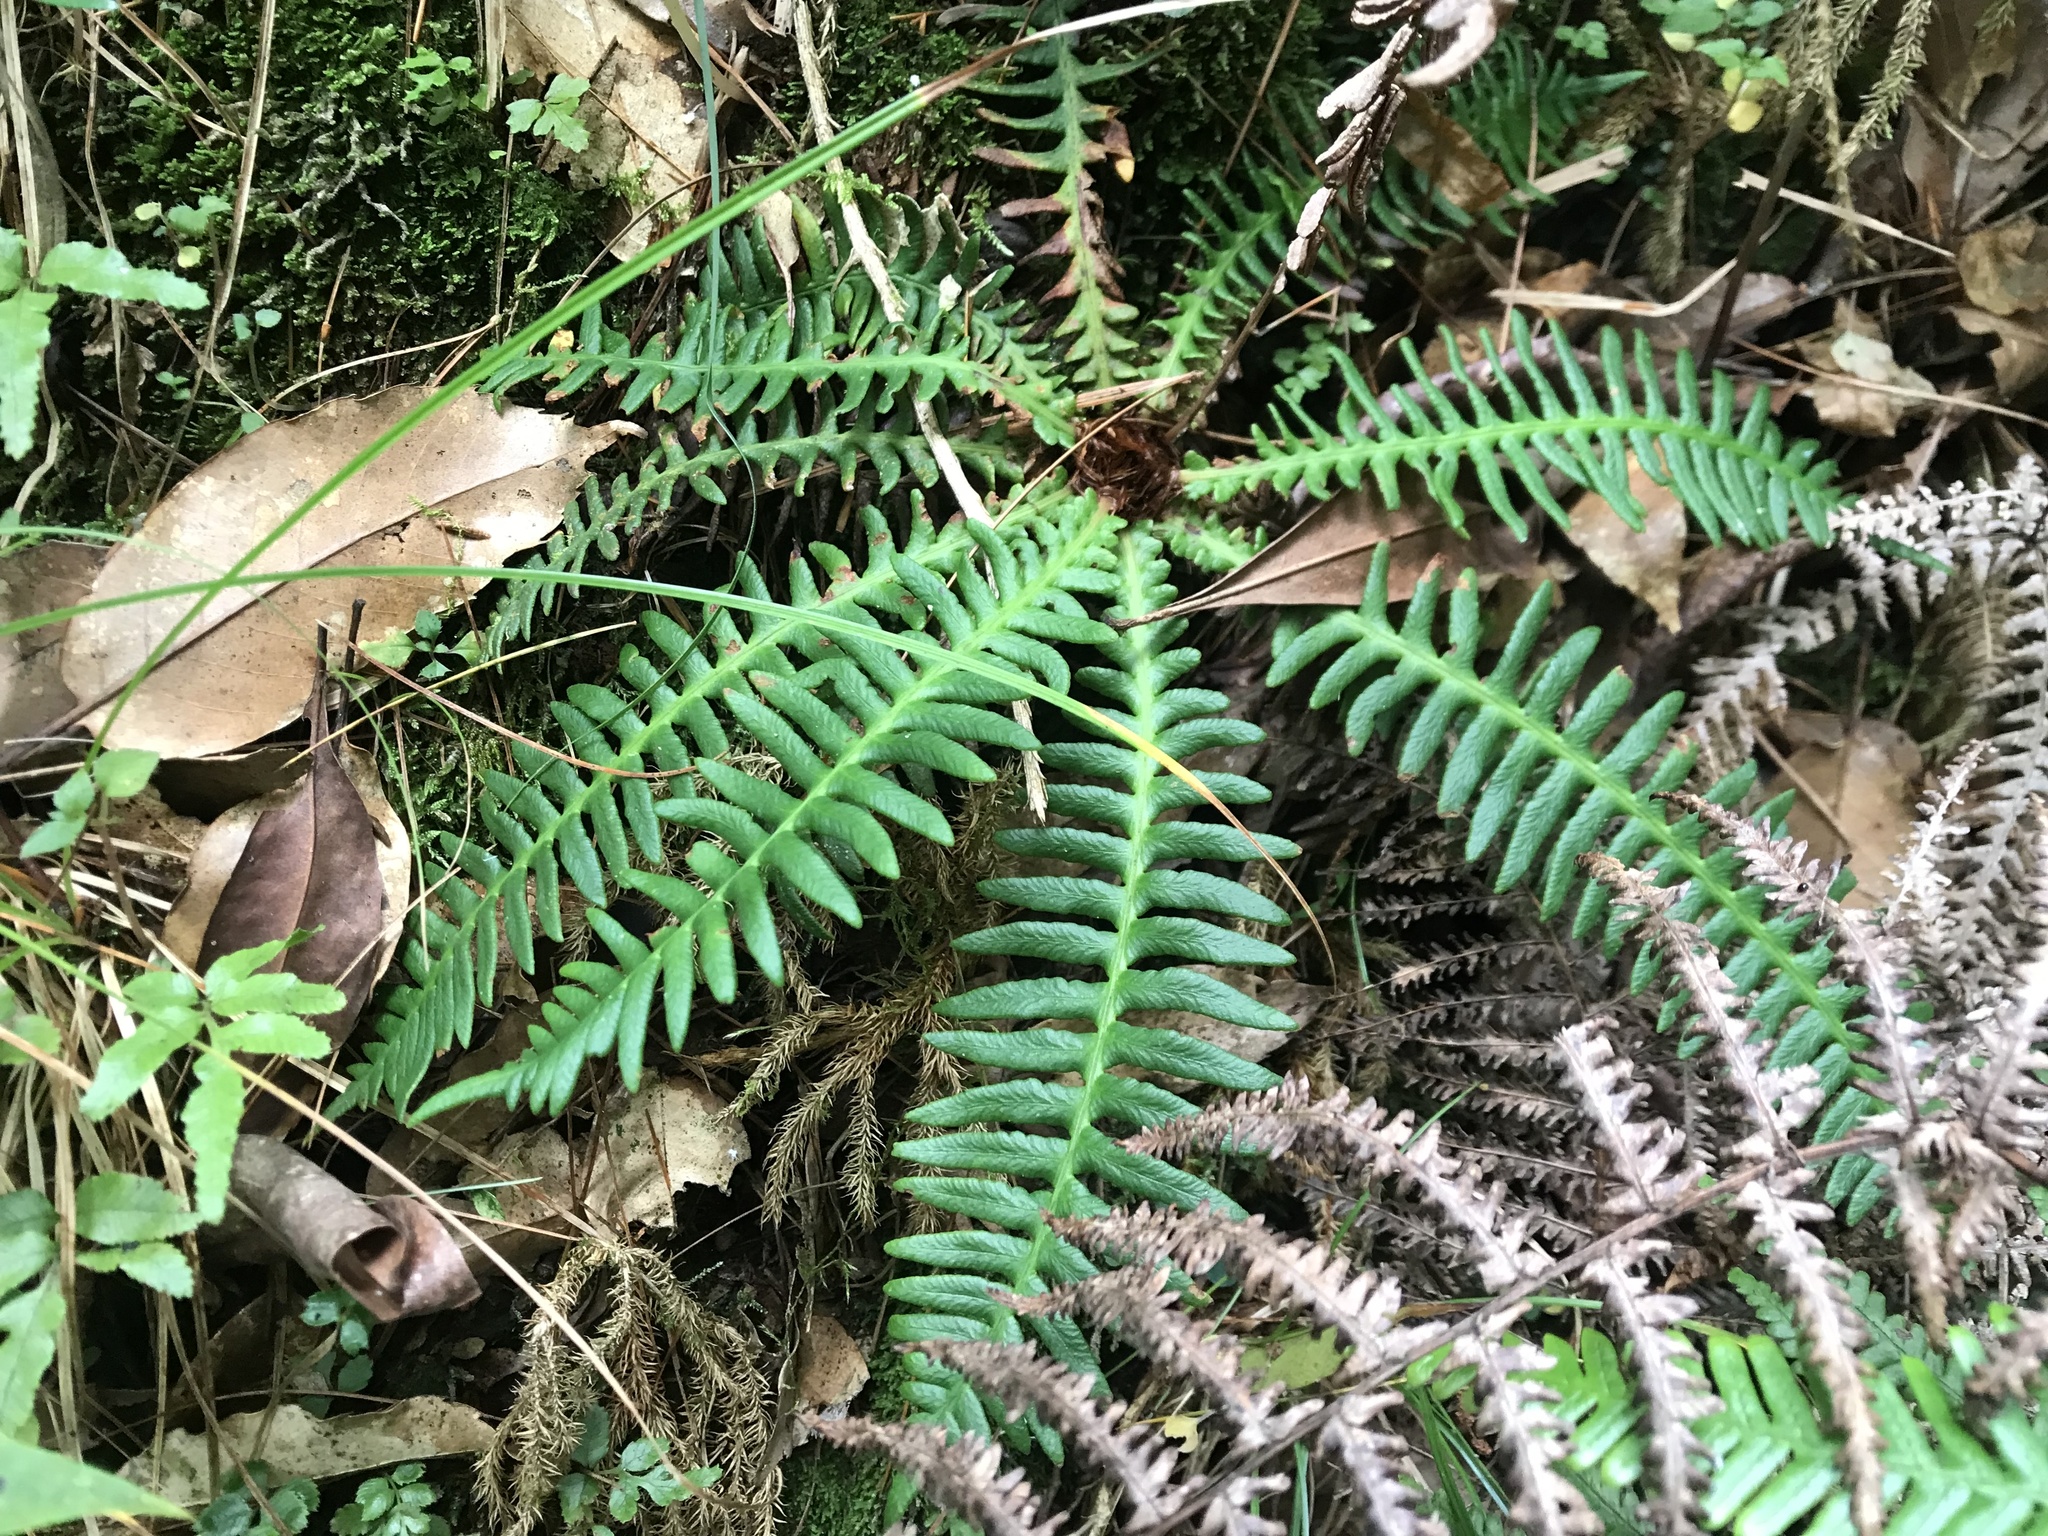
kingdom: Plantae
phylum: Tracheophyta
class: Polypodiopsida
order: Polypodiales
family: Blechnaceae
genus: Spicantopsis
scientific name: Spicantopsis hancockii
